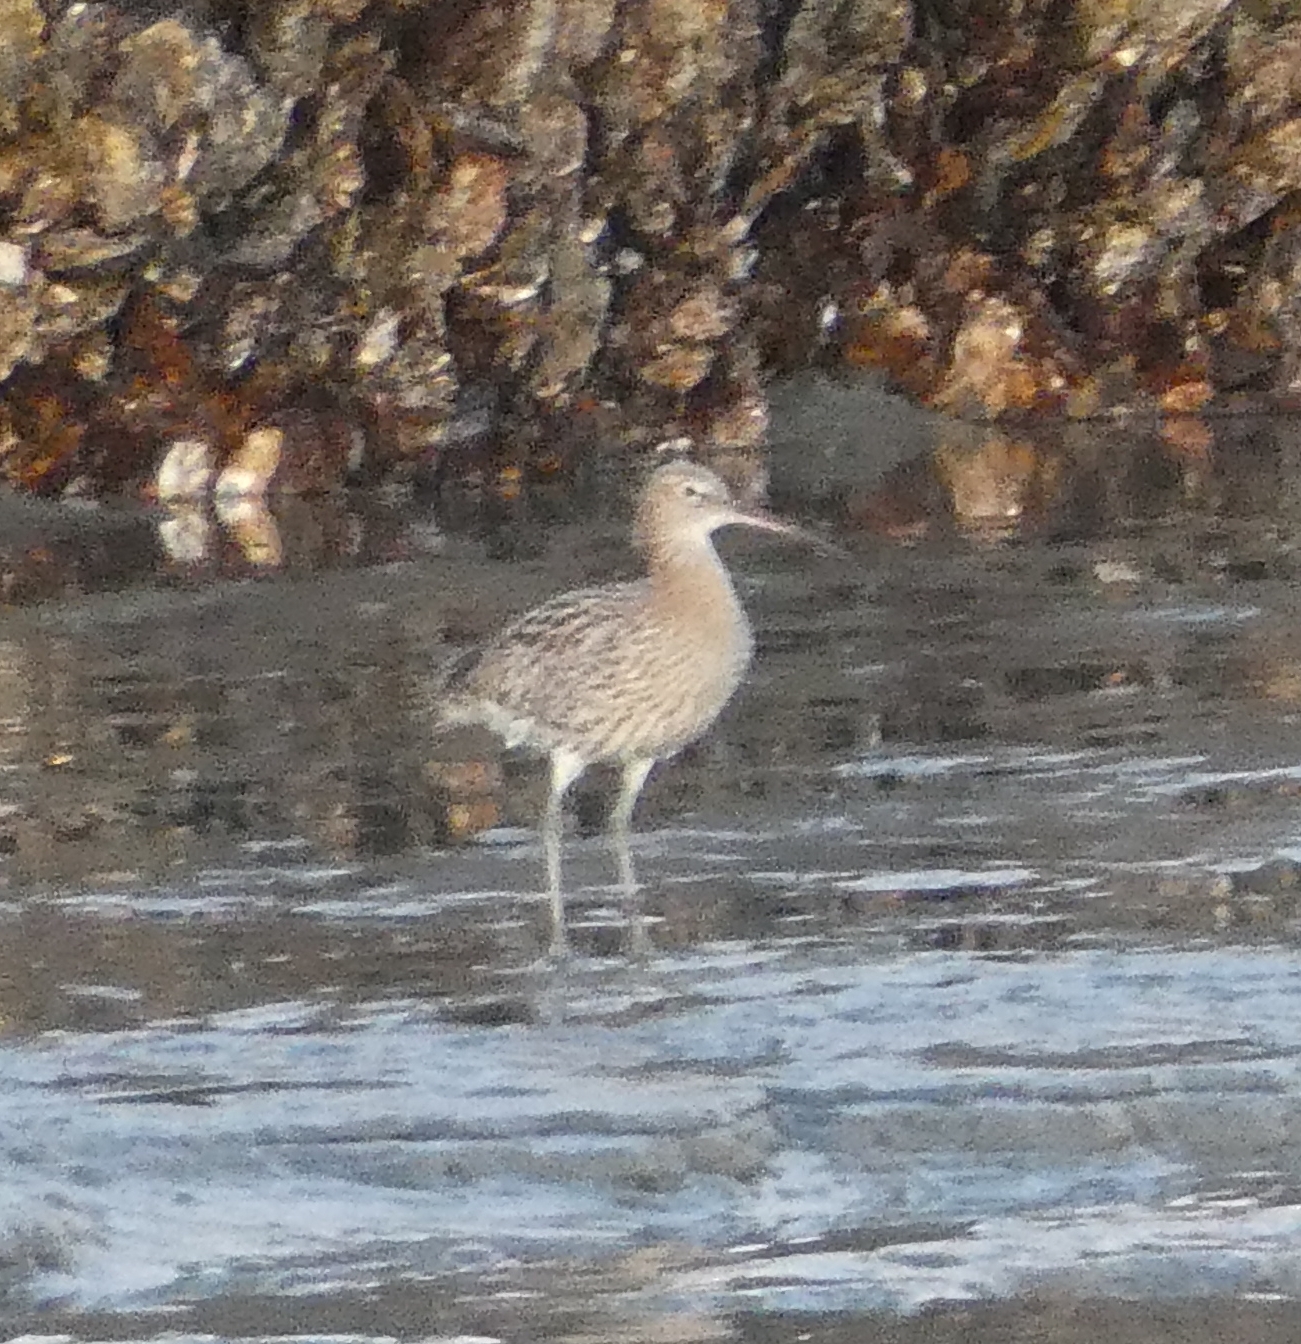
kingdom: Animalia
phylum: Chordata
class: Aves
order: Charadriiformes
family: Scolopacidae
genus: Numenius
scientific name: Numenius arquata
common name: Eurasian curlew
